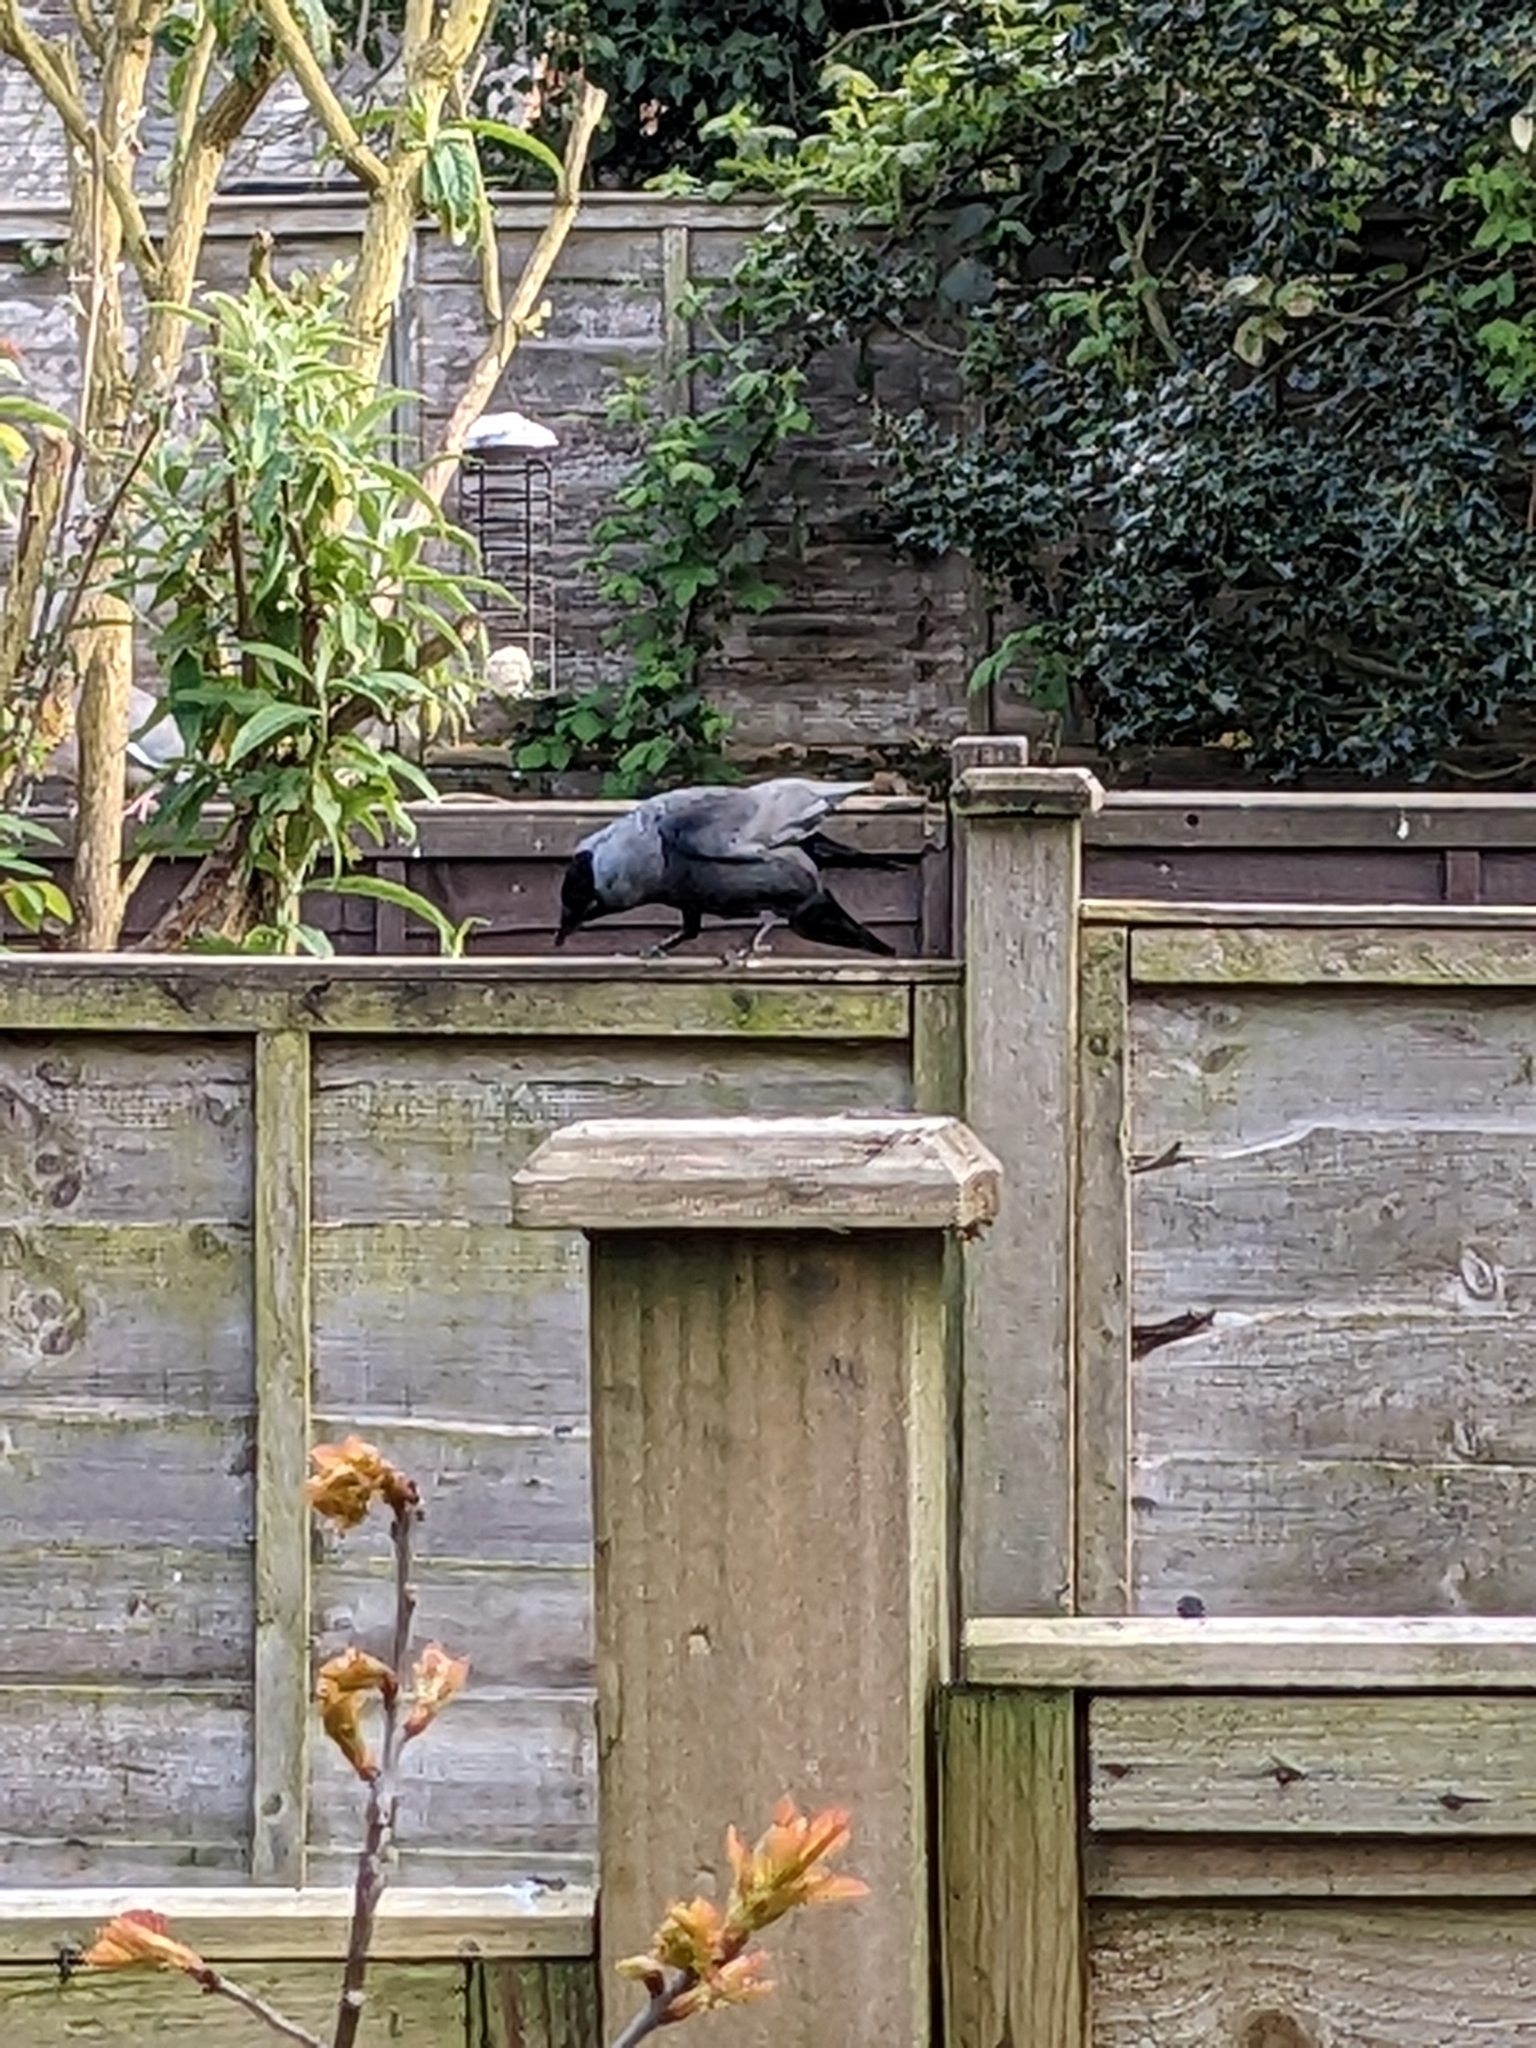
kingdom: Animalia
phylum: Chordata
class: Aves
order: Passeriformes
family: Corvidae
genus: Coloeus
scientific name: Coloeus monedula
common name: Western jackdaw
